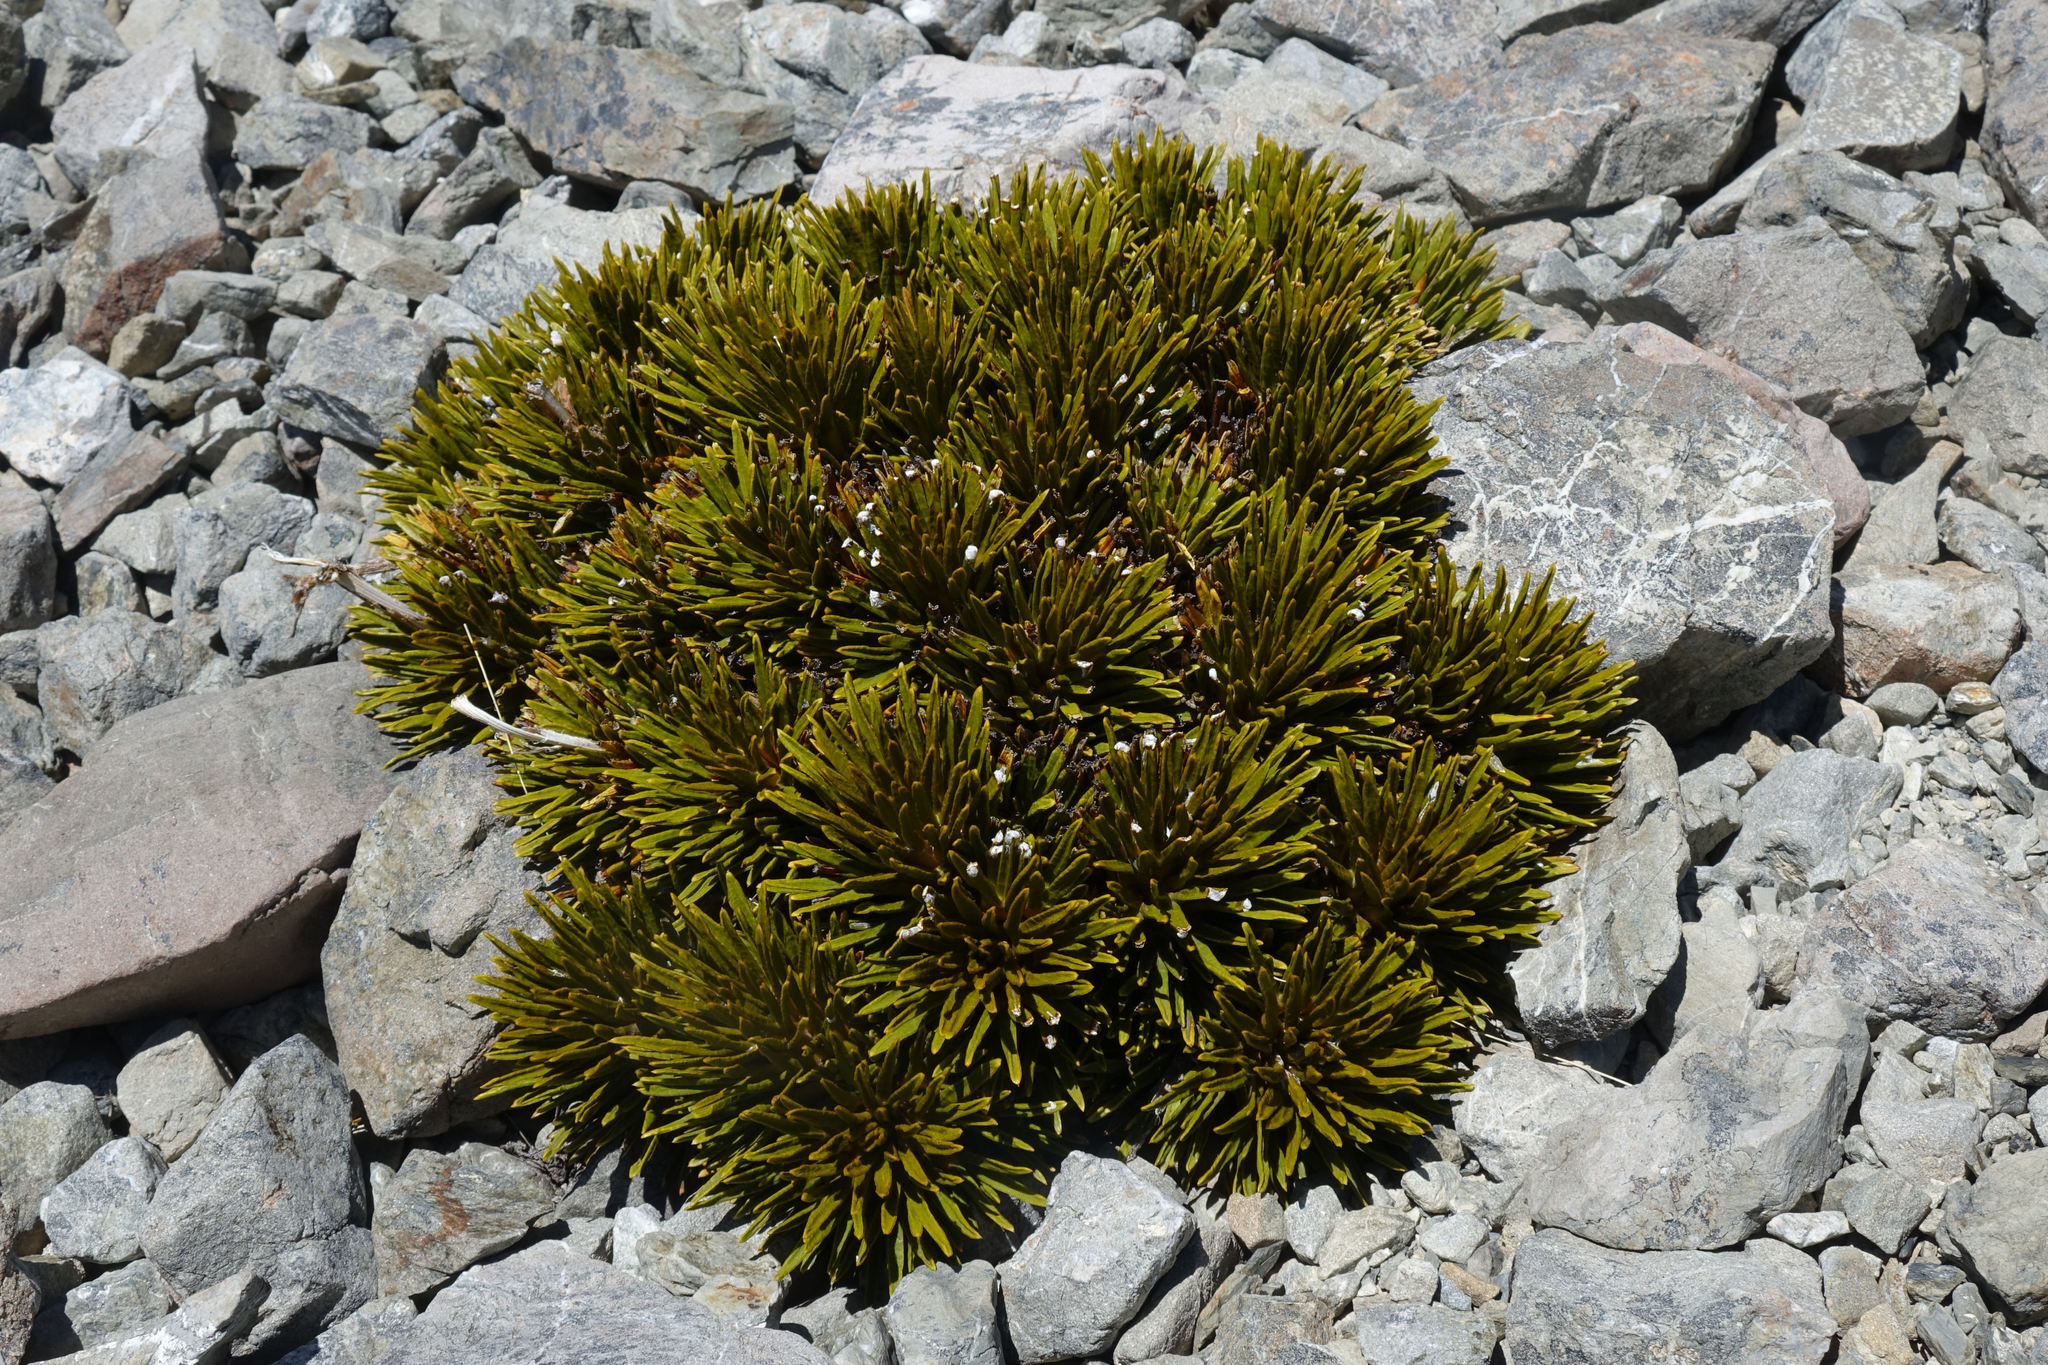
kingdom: Plantae
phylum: Tracheophyta
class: Magnoliopsida
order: Apiales
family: Apiaceae
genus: Aciphylla
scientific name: Aciphylla dobsonii
